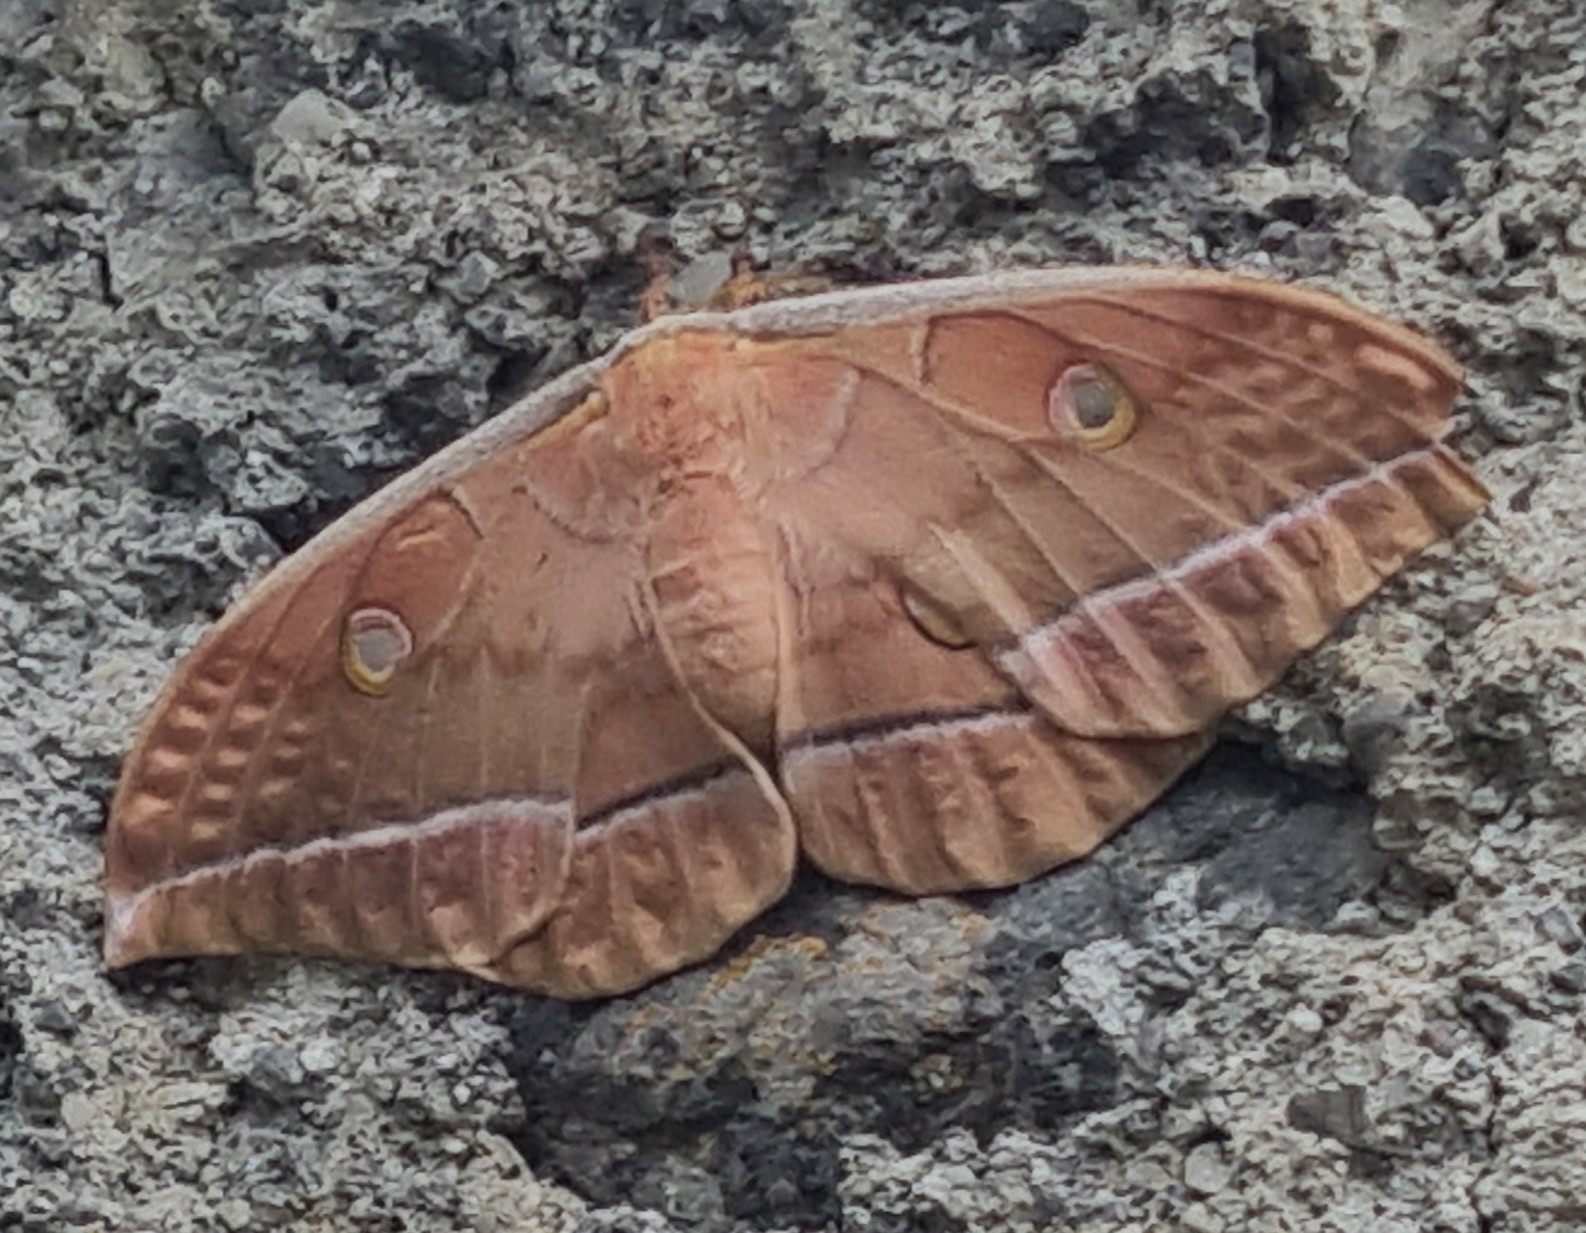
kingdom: Animalia
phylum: Arthropoda
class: Insecta
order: Lepidoptera
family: Saturniidae
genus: Antheraea
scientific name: Antheraea yamamai
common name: Japanese oak silk moth
